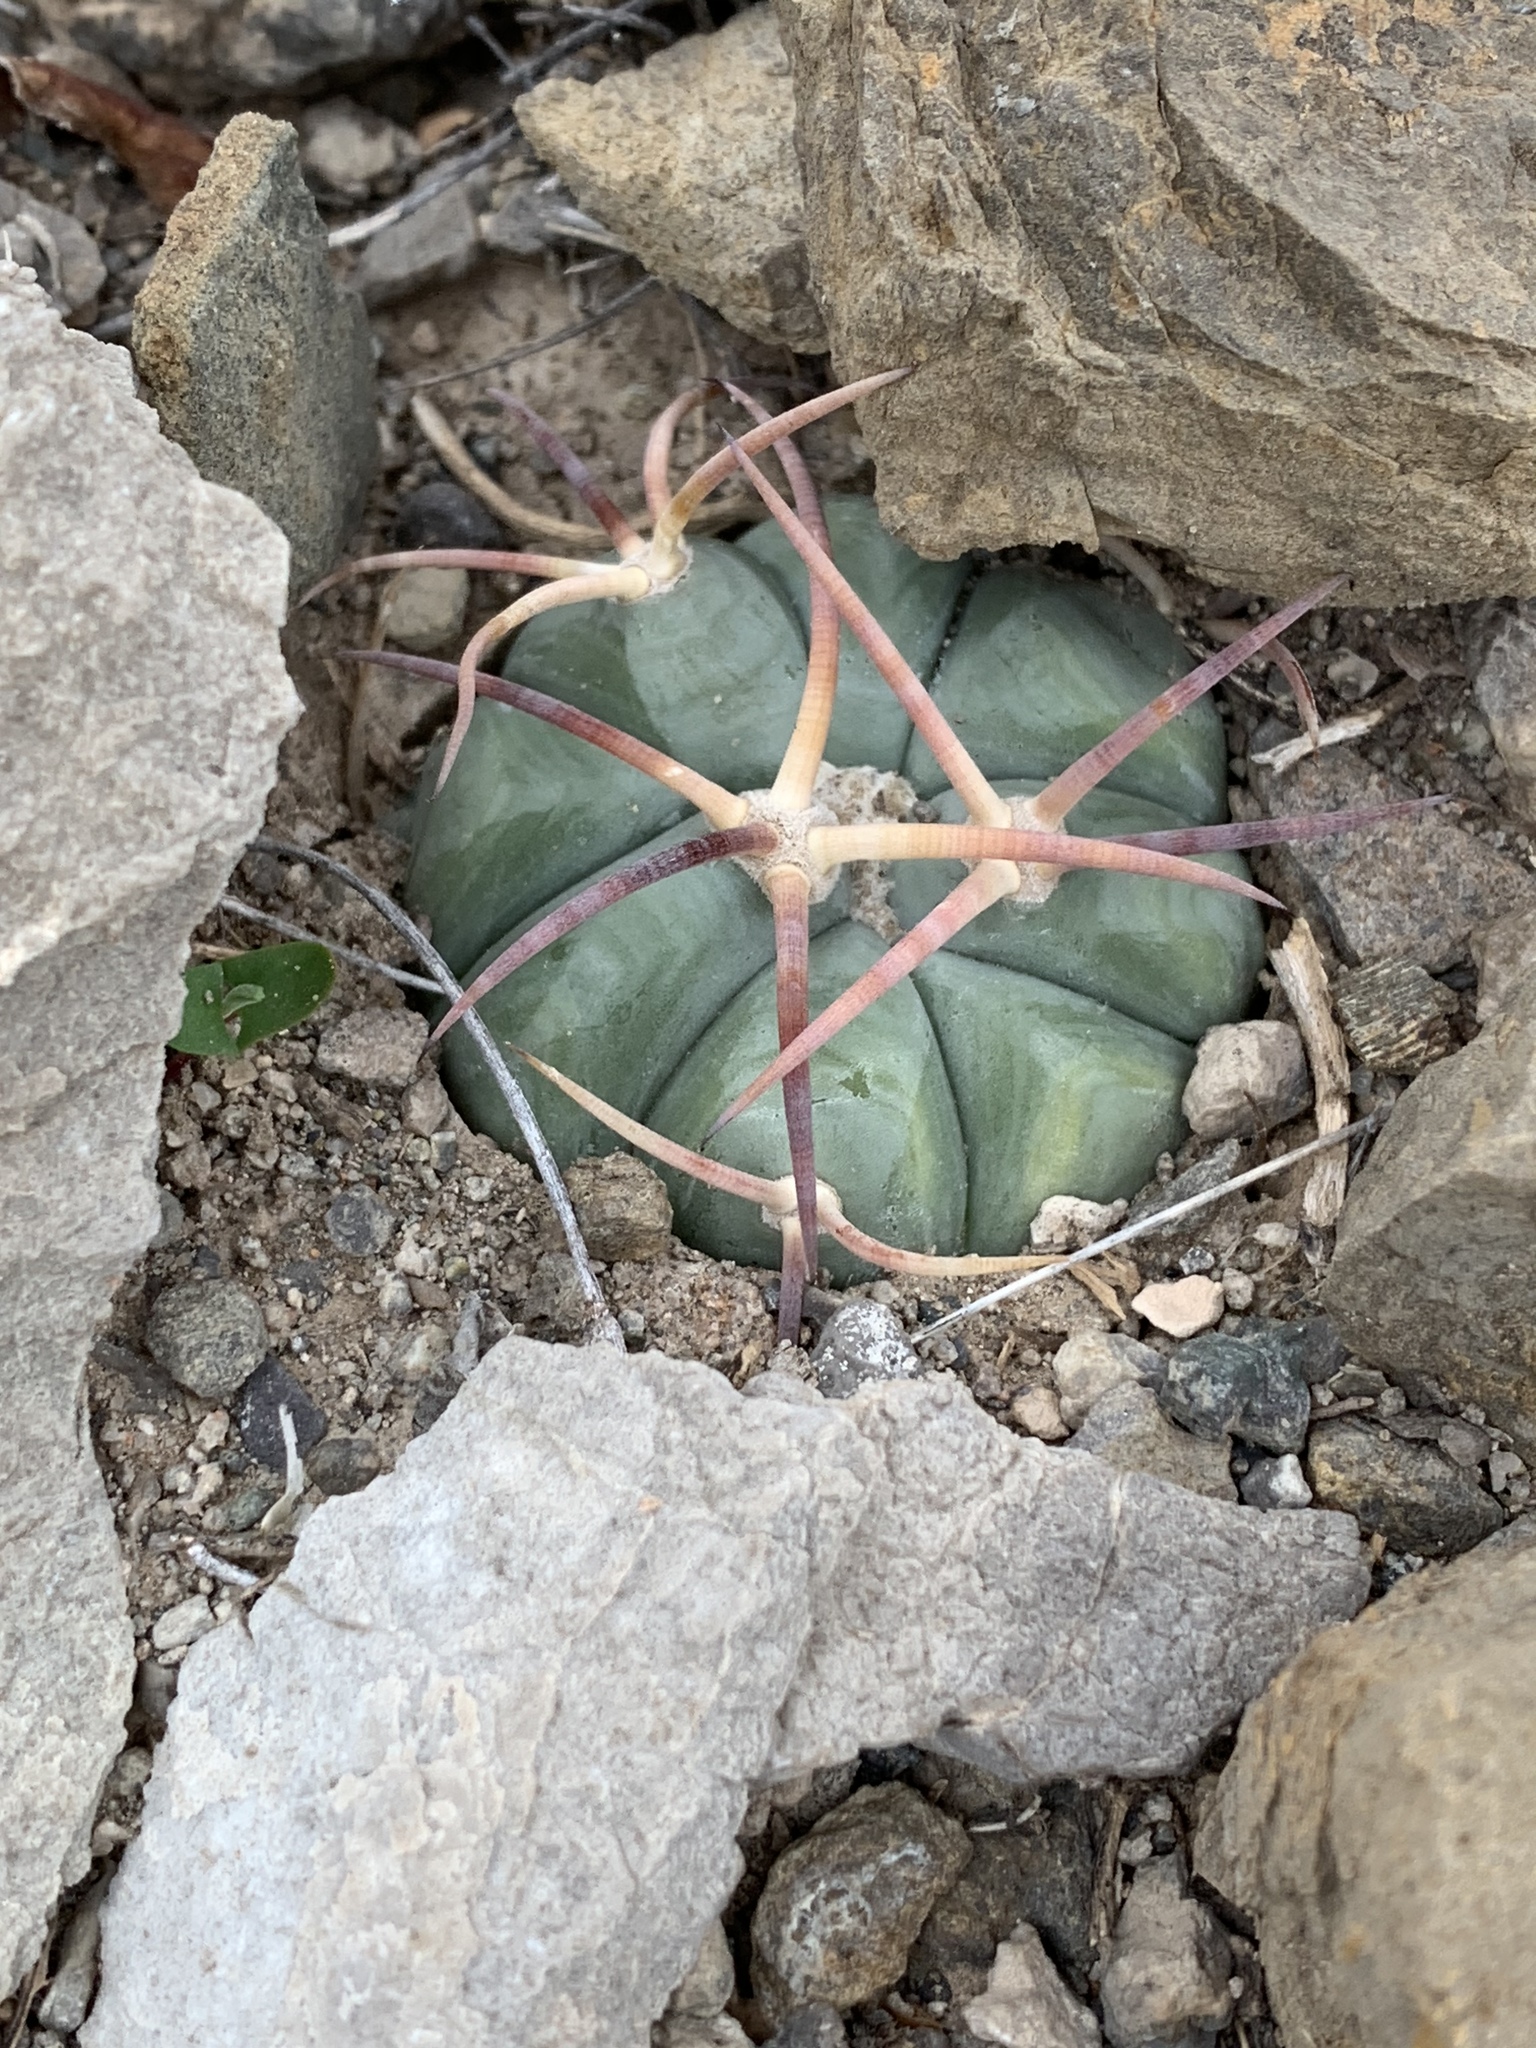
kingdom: Plantae
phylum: Tracheophyta
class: Magnoliopsida
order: Caryophyllales
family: Cactaceae
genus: Echinocactus
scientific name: Echinocactus horizonthalonius
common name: Devilshead
